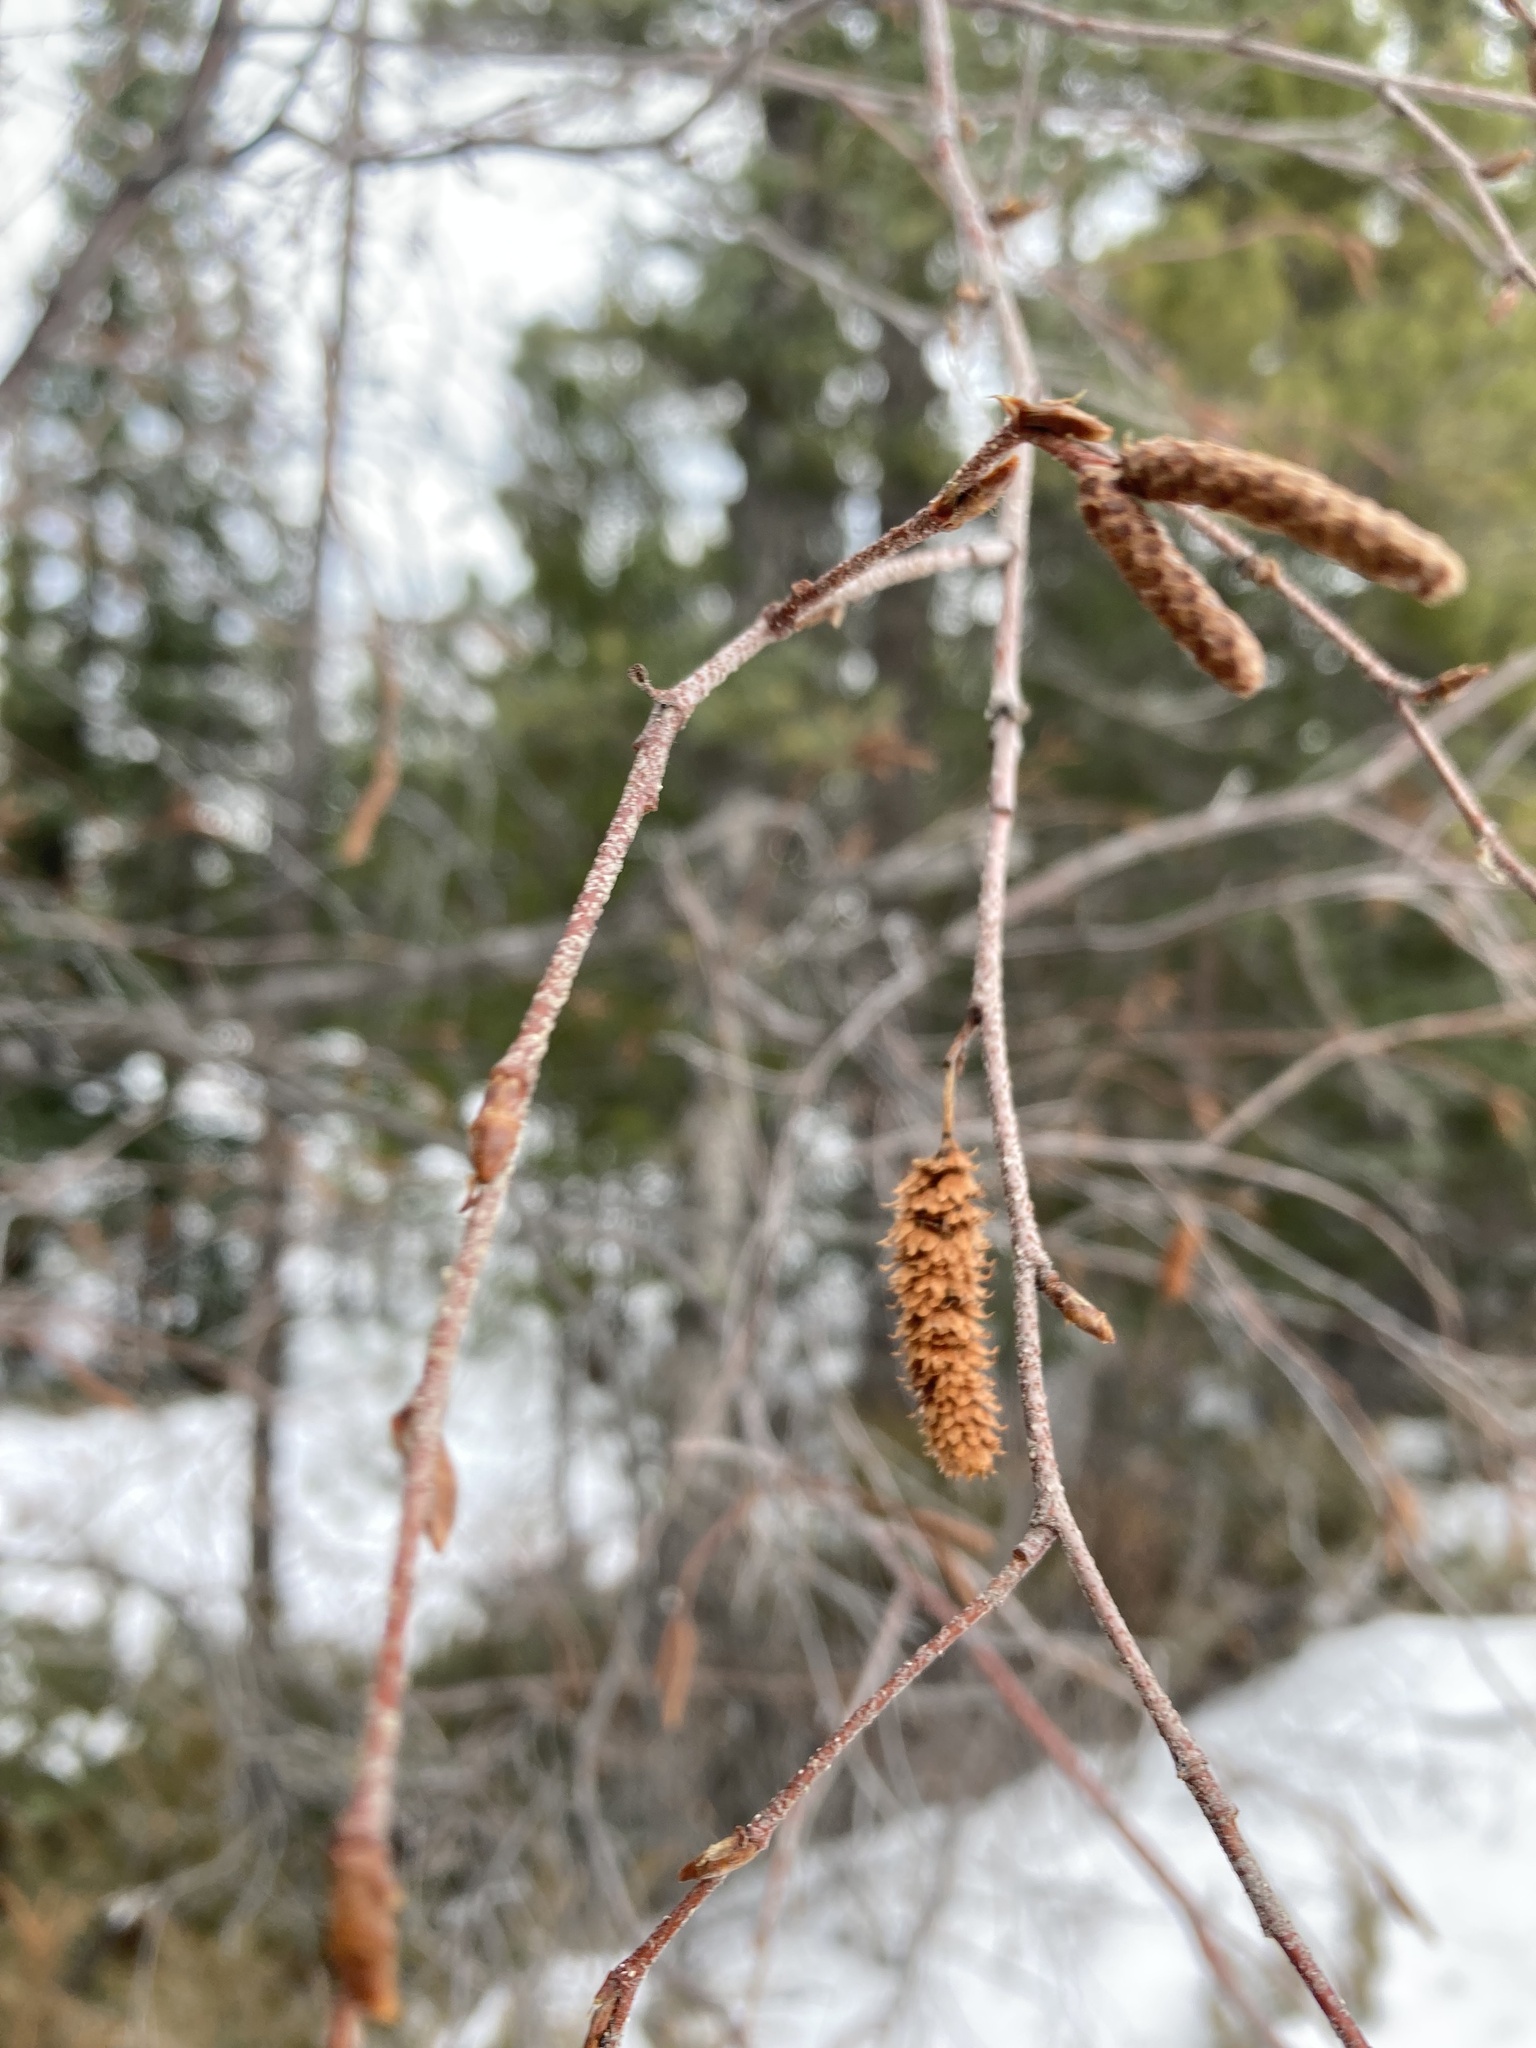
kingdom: Plantae
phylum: Tracheophyta
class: Magnoliopsida
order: Fagales
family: Betulaceae
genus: Betula
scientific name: Betula occidentalis
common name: River birch
